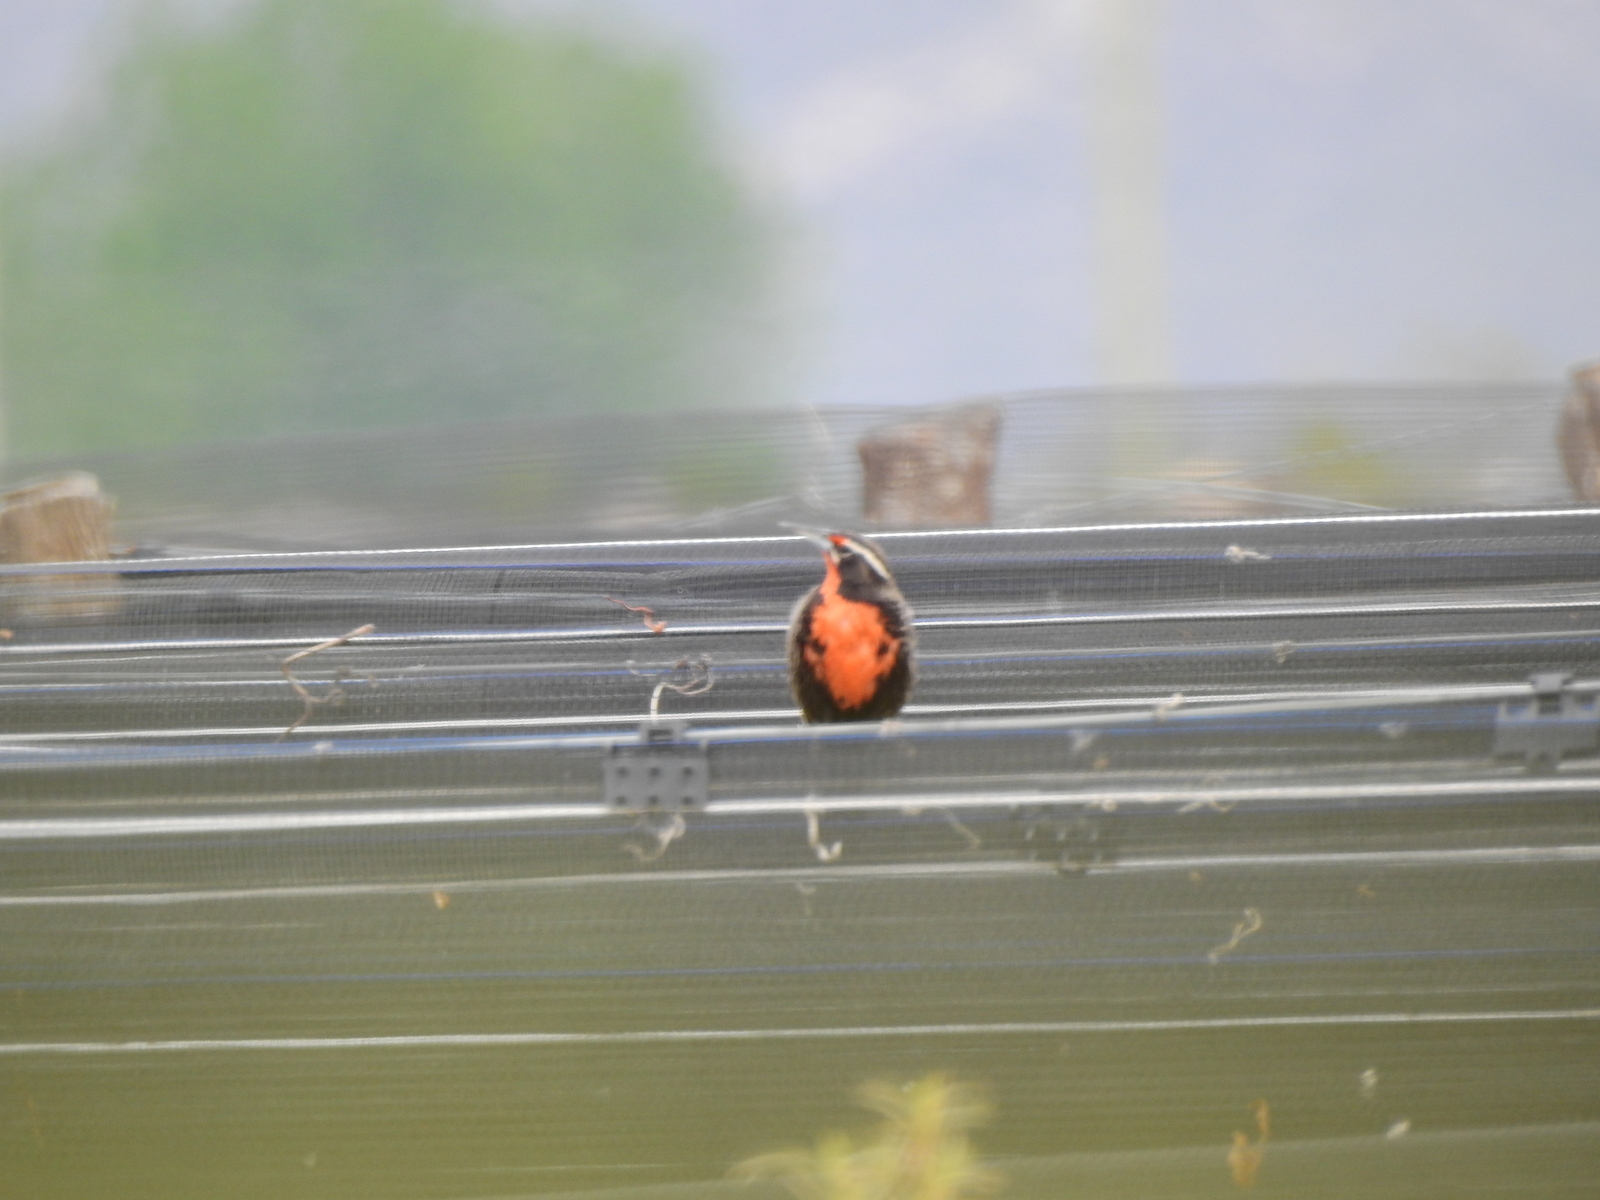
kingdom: Animalia
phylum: Chordata
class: Aves
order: Passeriformes
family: Icteridae
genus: Sturnella
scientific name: Sturnella loyca
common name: Long-tailed meadowlark
